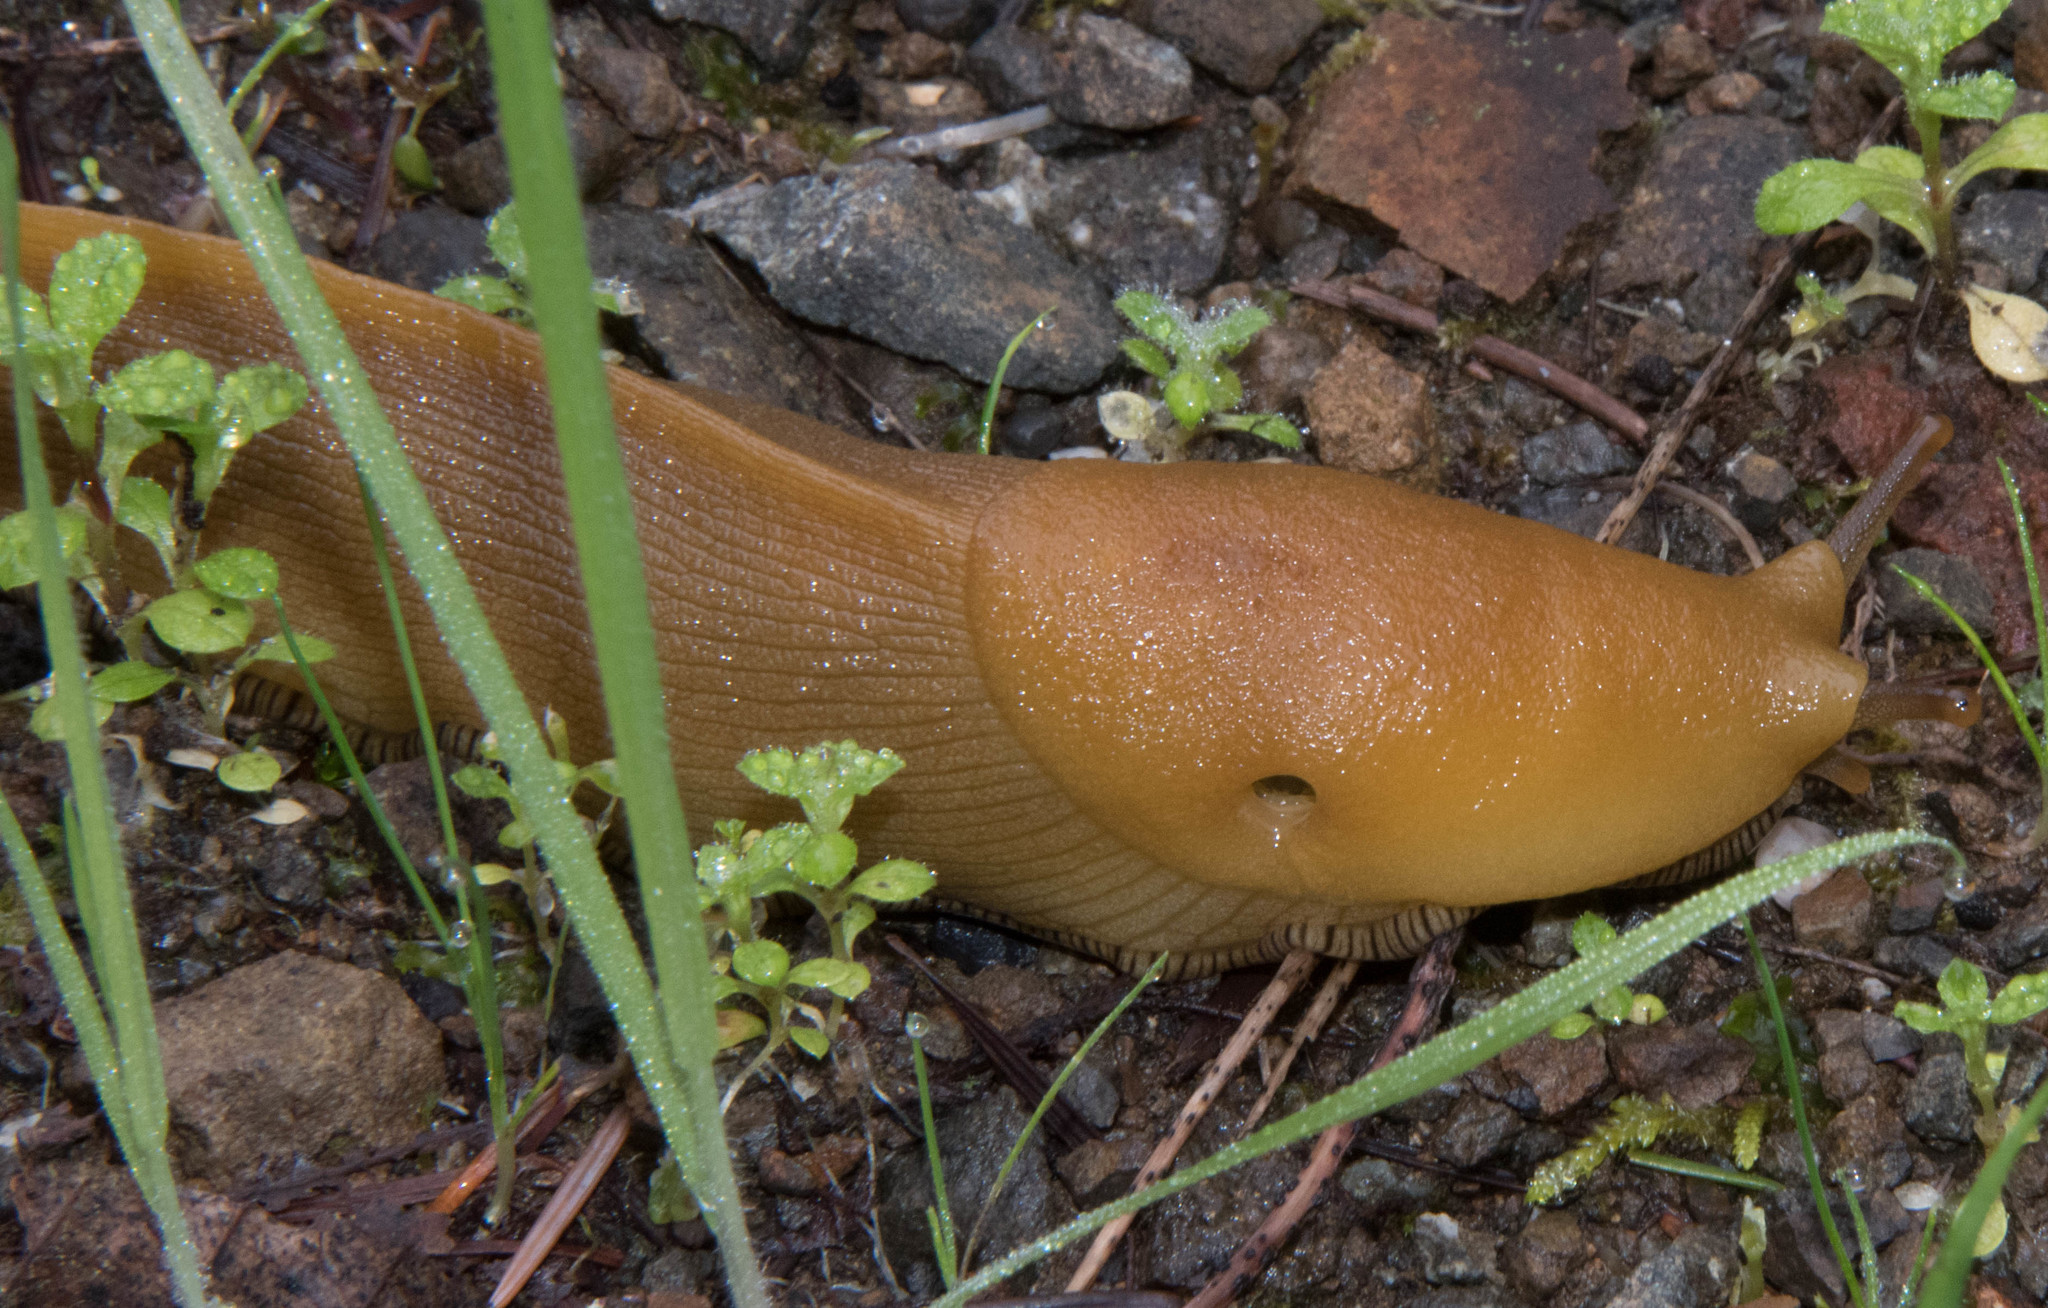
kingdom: Animalia
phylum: Mollusca
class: Gastropoda
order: Stylommatophora
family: Ariolimacidae
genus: Ariolimax
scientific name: Ariolimax buttoni
